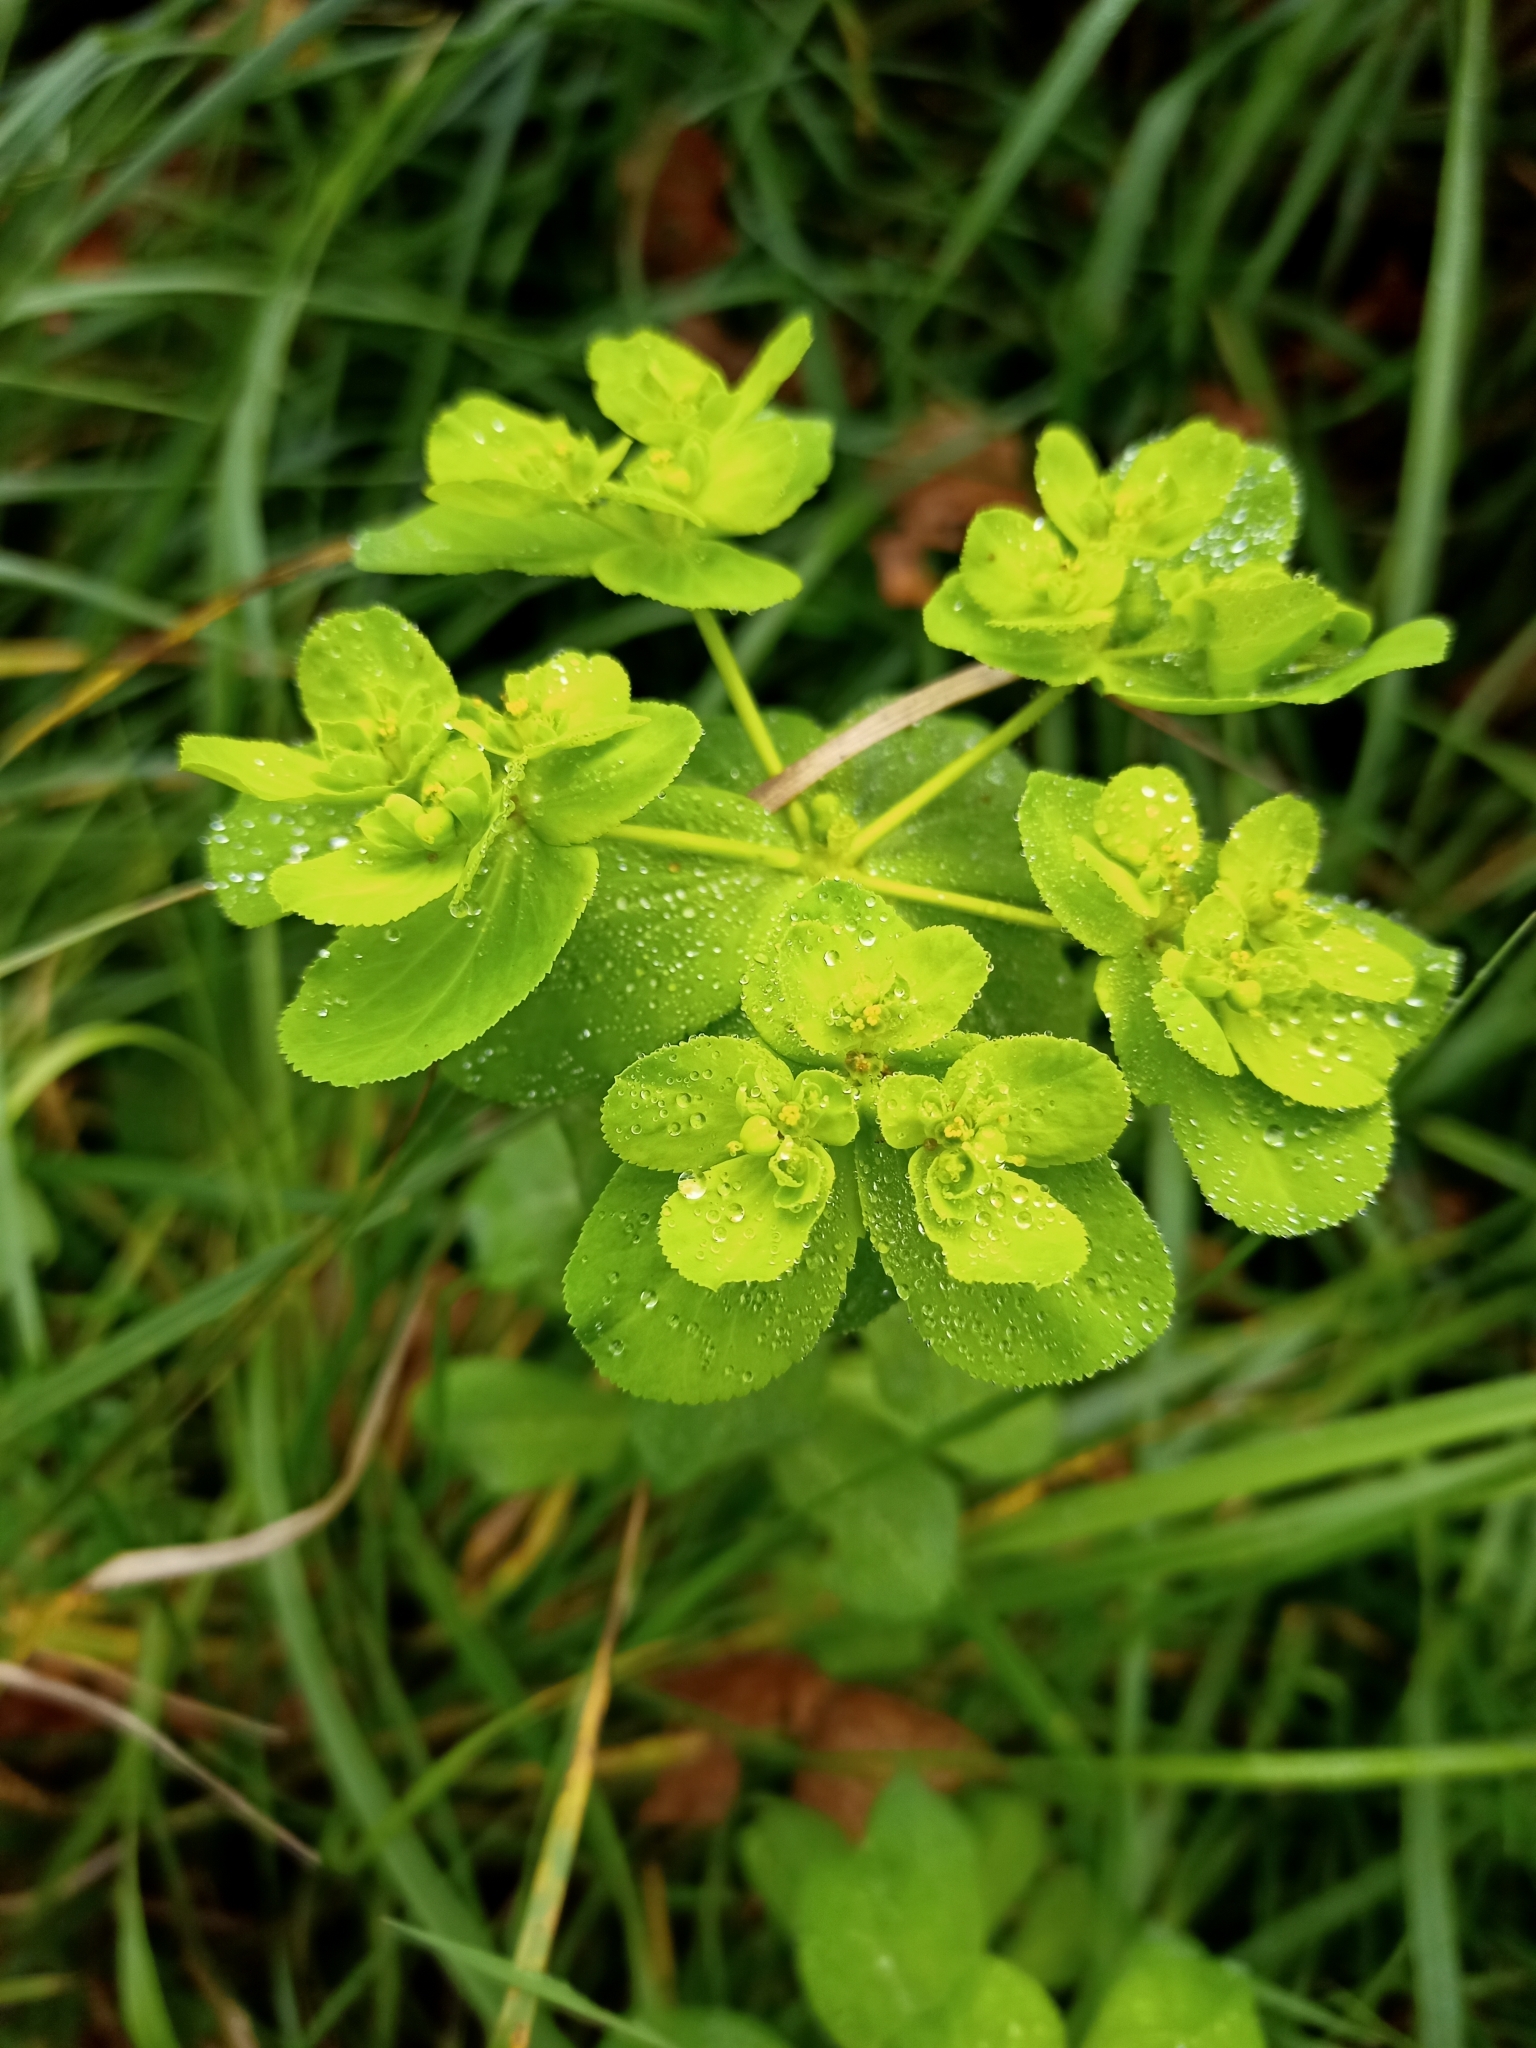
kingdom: Plantae
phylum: Tracheophyta
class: Magnoliopsida
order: Malpighiales
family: Euphorbiaceae
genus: Euphorbia
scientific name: Euphorbia helioscopia
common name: Sun spurge
